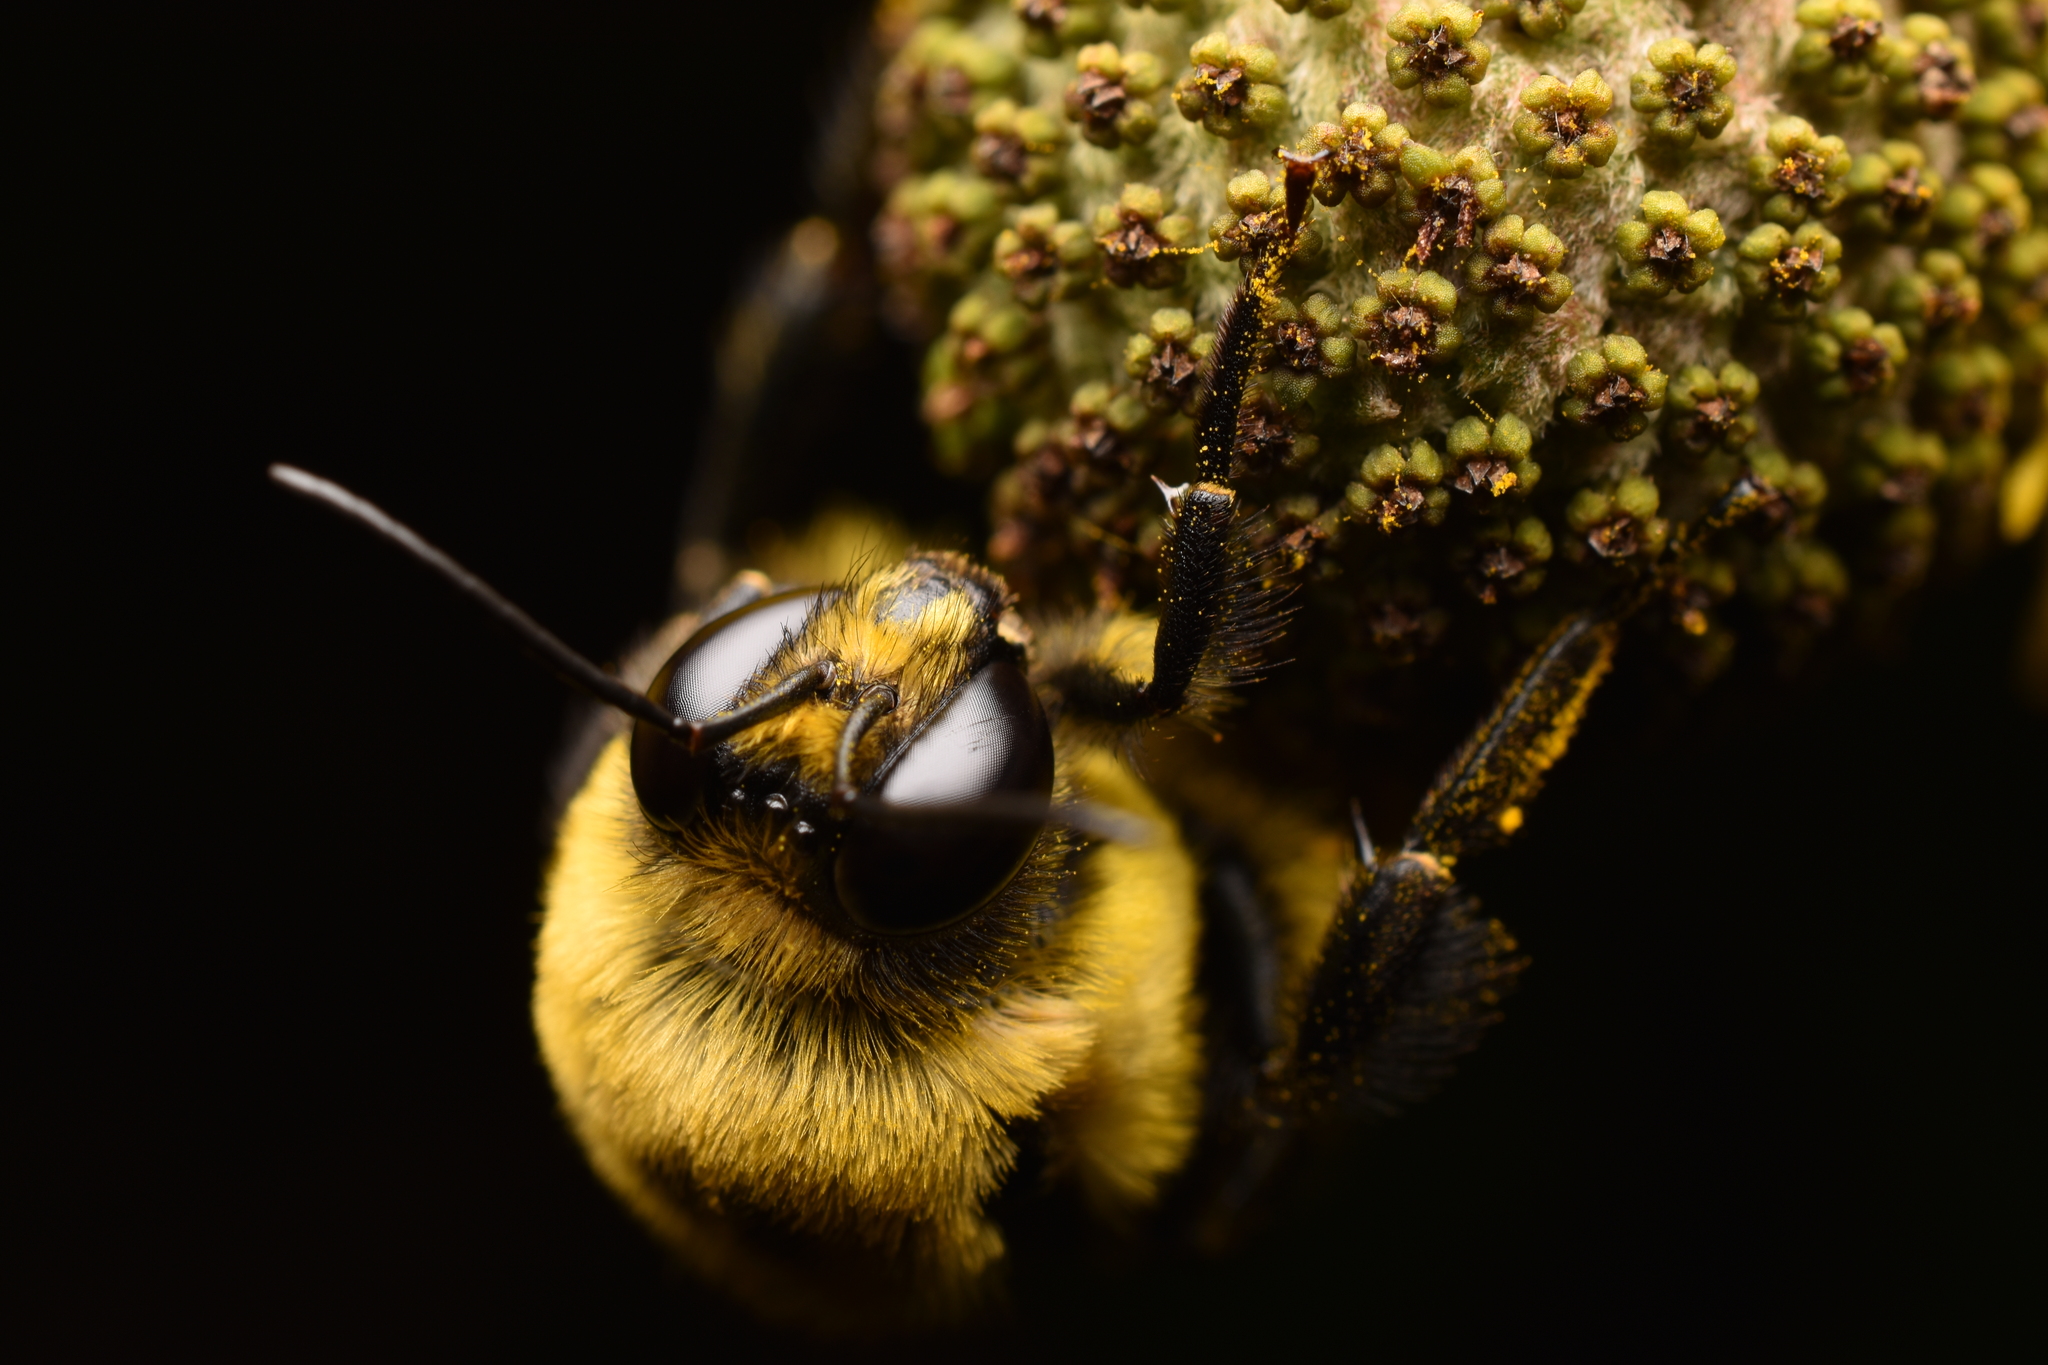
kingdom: Animalia
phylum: Arthropoda
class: Insecta
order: Hymenoptera
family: Apidae
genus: Bombus
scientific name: Bombus griseocollis
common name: Brown-belted bumble bee
